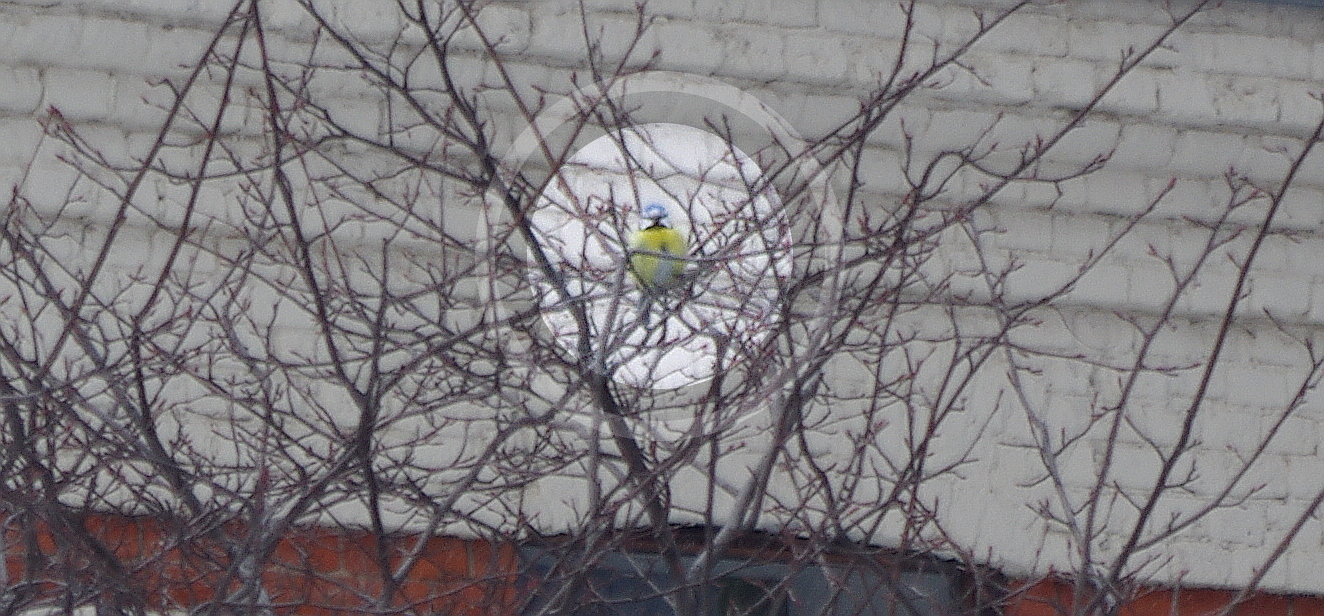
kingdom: Animalia
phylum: Chordata
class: Aves
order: Passeriformes
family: Paridae
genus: Cyanistes
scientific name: Cyanistes caeruleus
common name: Eurasian blue tit
